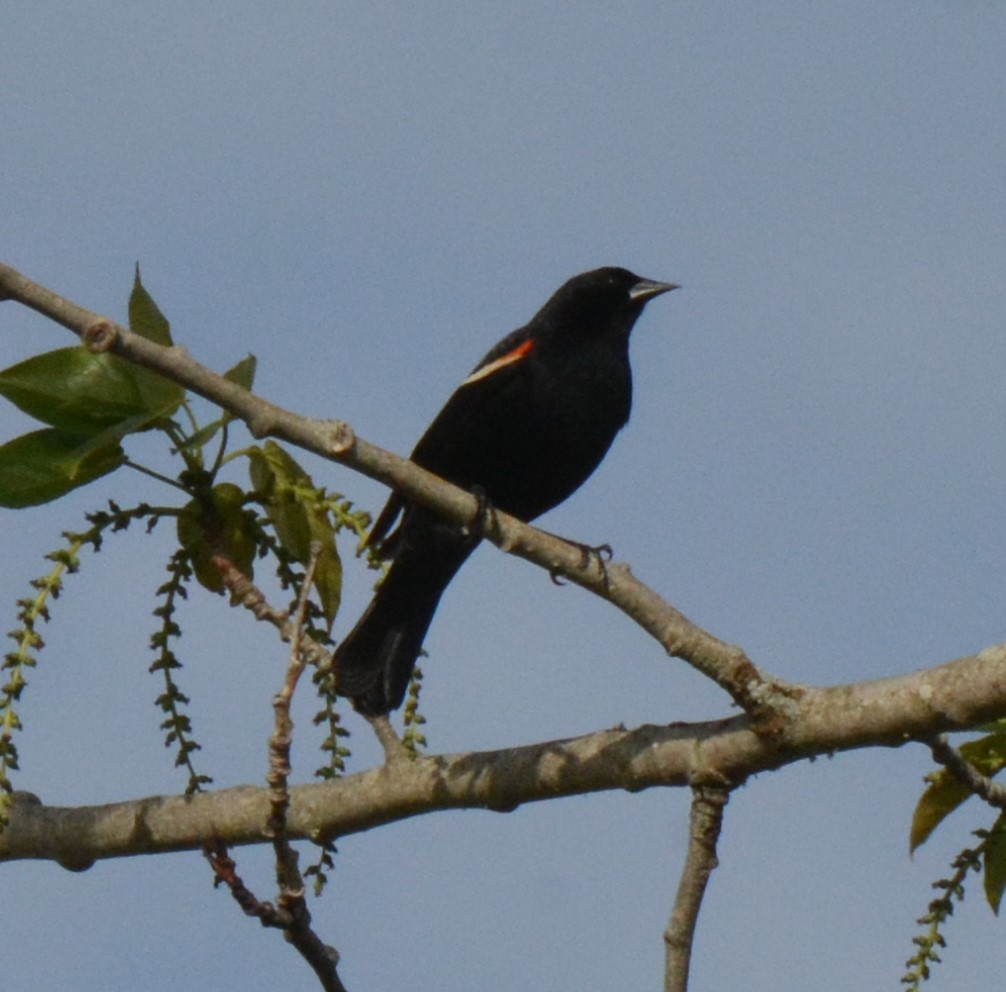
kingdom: Animalia
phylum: Chordata
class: Aves
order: Passeriformes
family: Icteridae
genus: Agelaius
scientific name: Agelaius phoeniceus
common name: Red-winged blackbird
